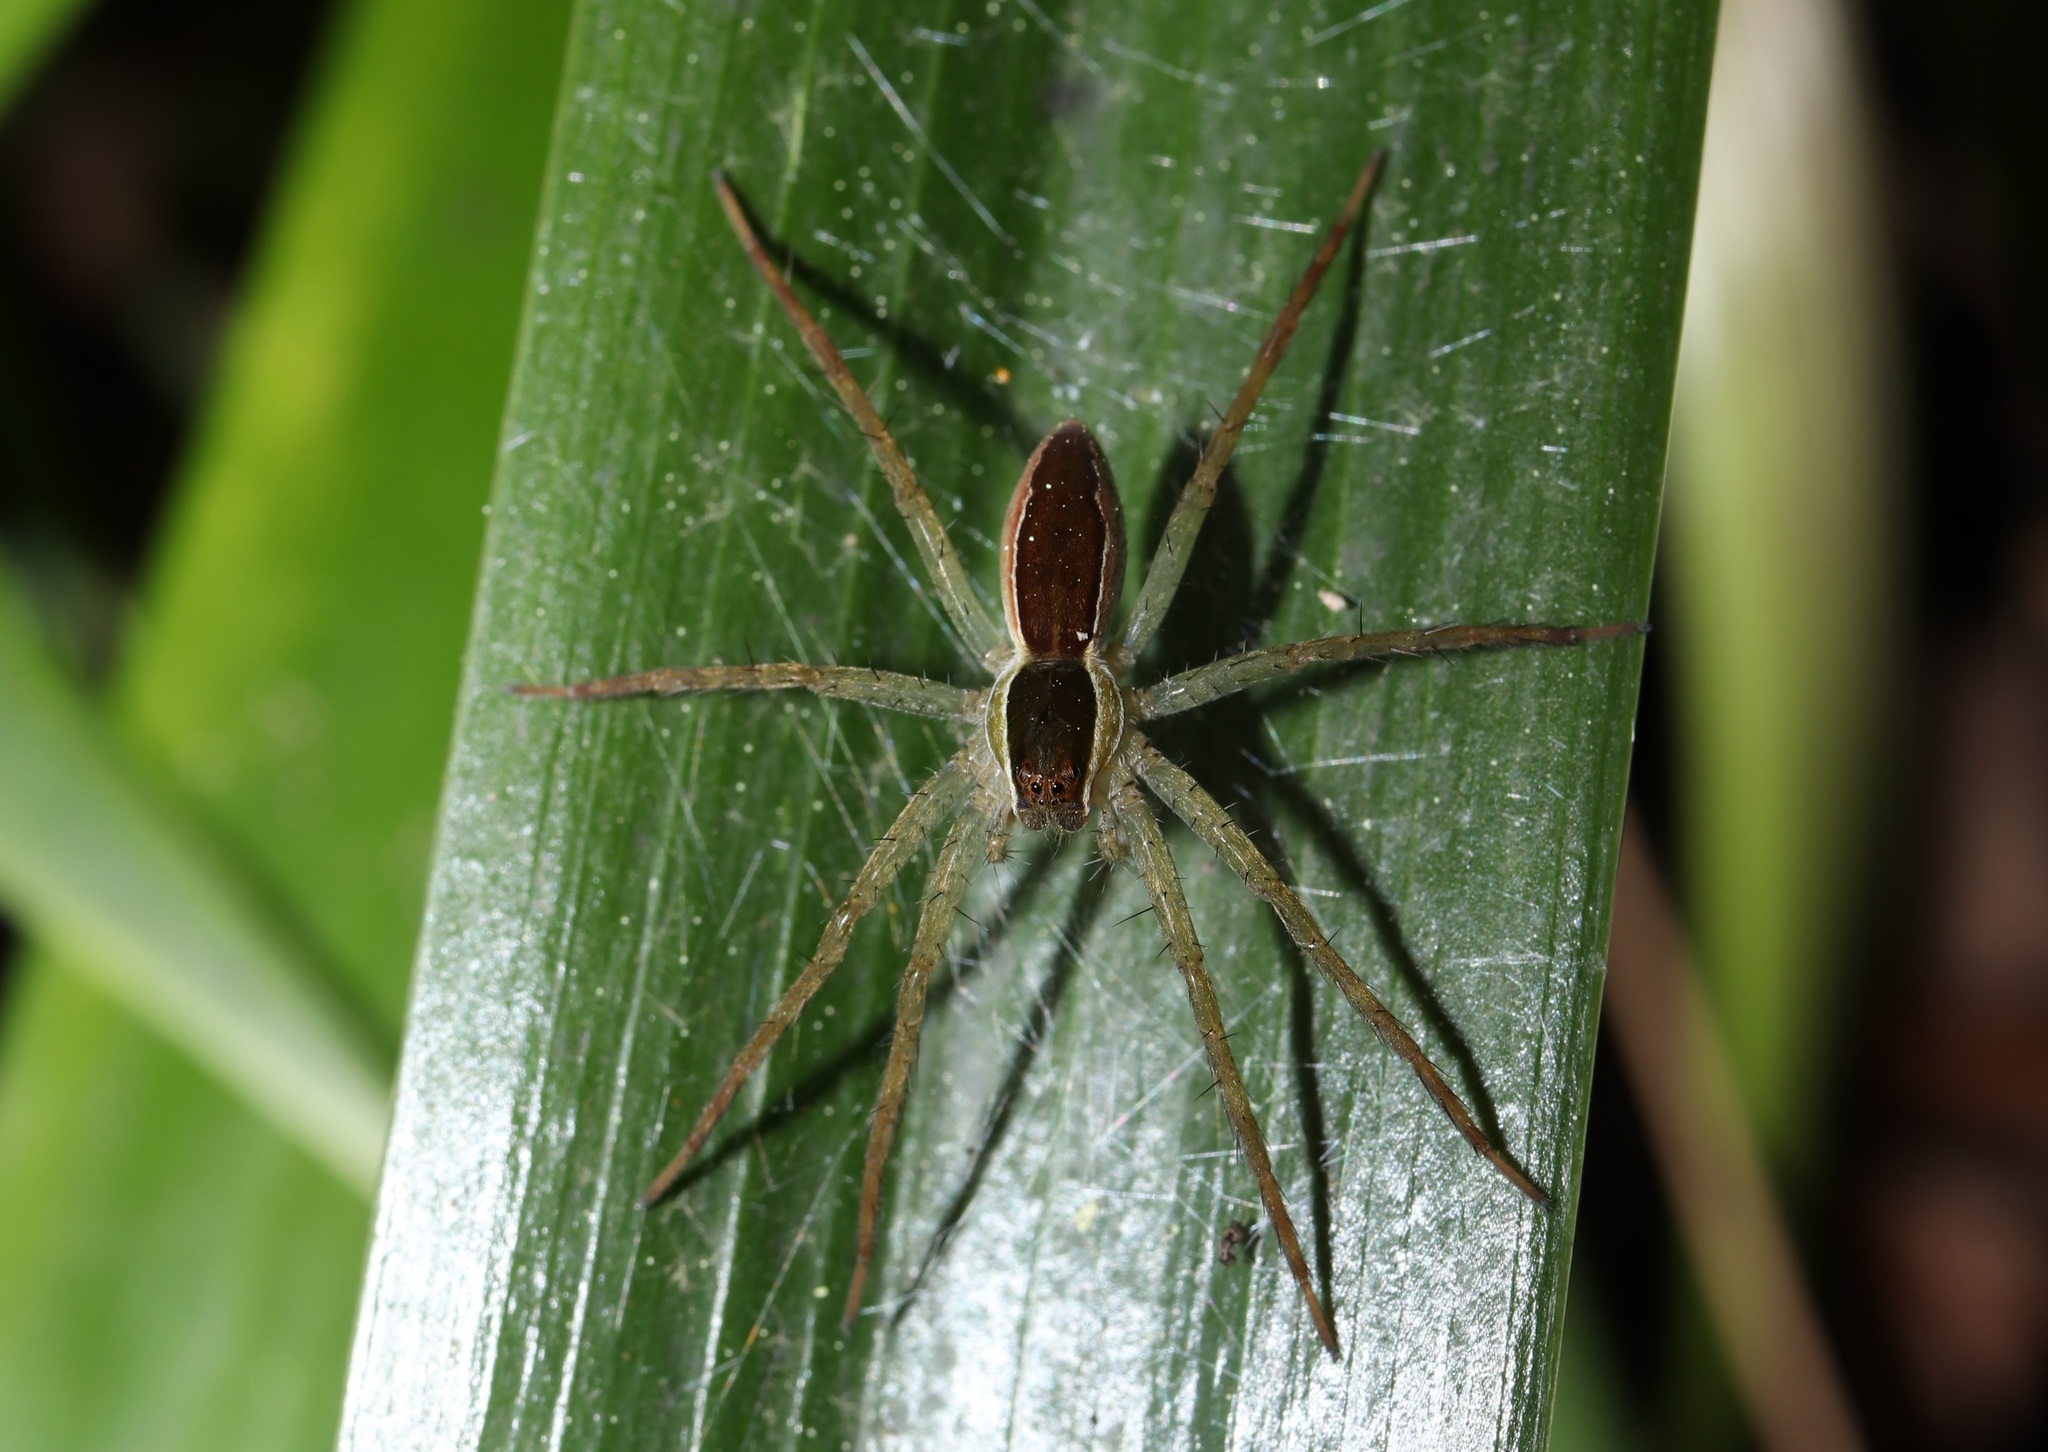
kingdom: Animalia
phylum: Arthropoda
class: Arachnida
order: Araneae
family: Pisauridae
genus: Dolomedes
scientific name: Dolomedes silvicola
